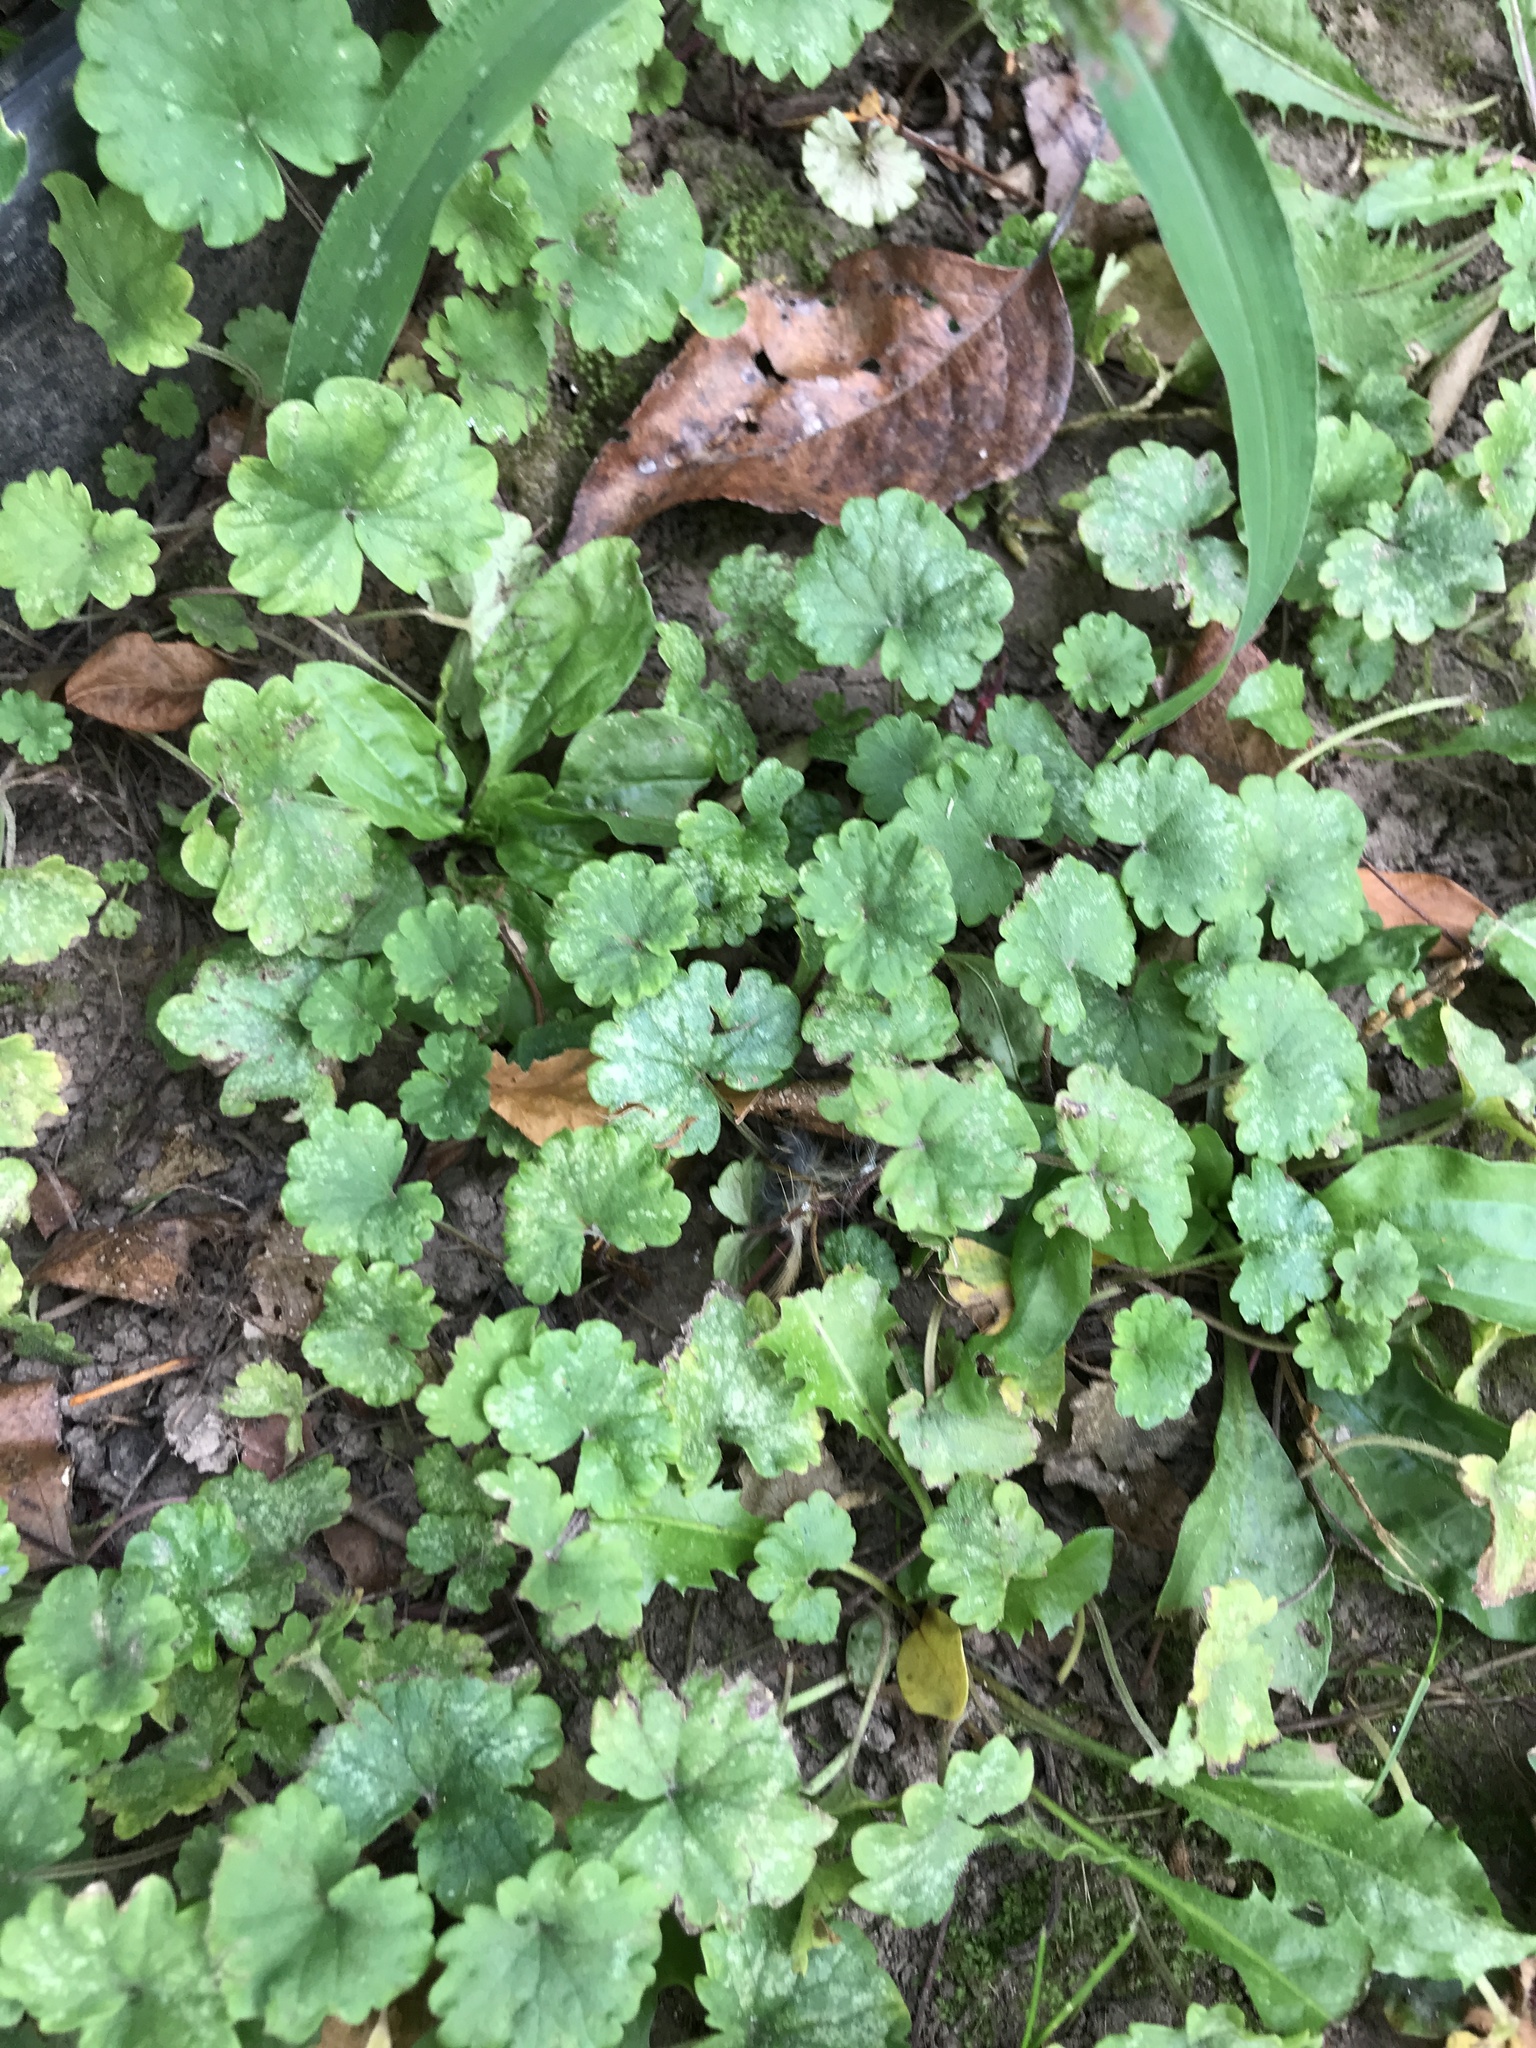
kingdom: Plantae
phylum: Tracheophyta
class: Magnoliopsida
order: Lamiales
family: Lamiaceae
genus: Glechoma
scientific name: Glechoma hederacea
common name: Ground ivy
